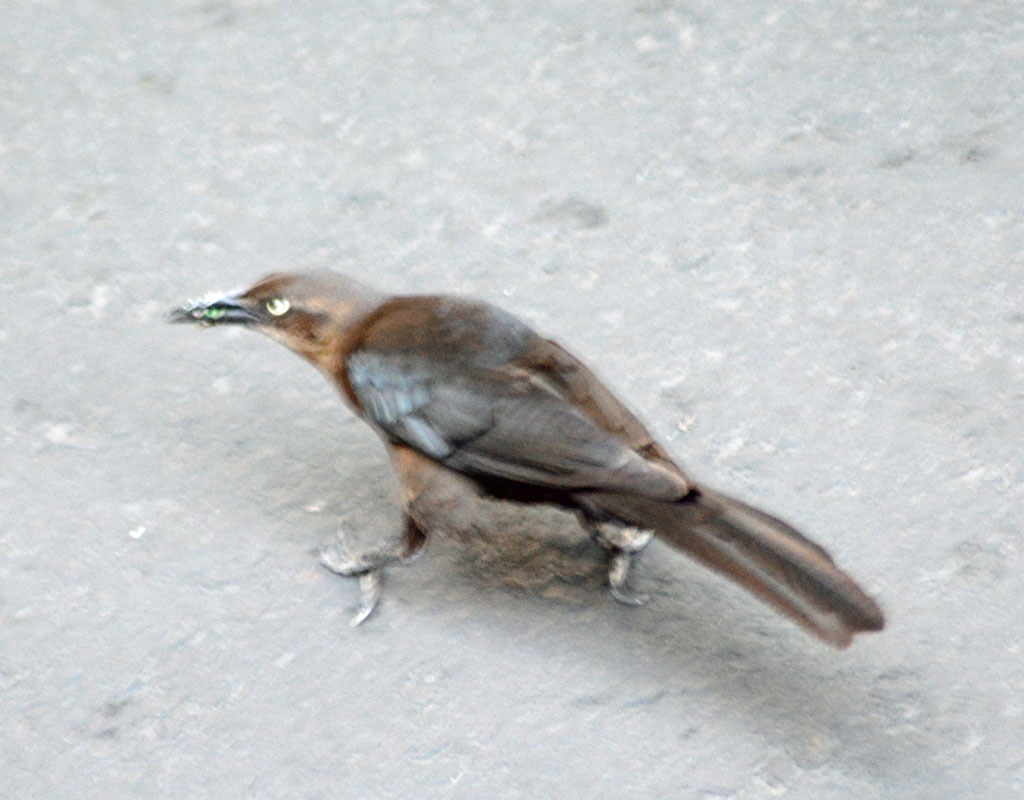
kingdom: Animalia
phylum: Chordata
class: Aves
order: Passeriformes
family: Icteridae
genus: Quiscalus
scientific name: Quiscalus mexicanus
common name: Great-tailed grackle
